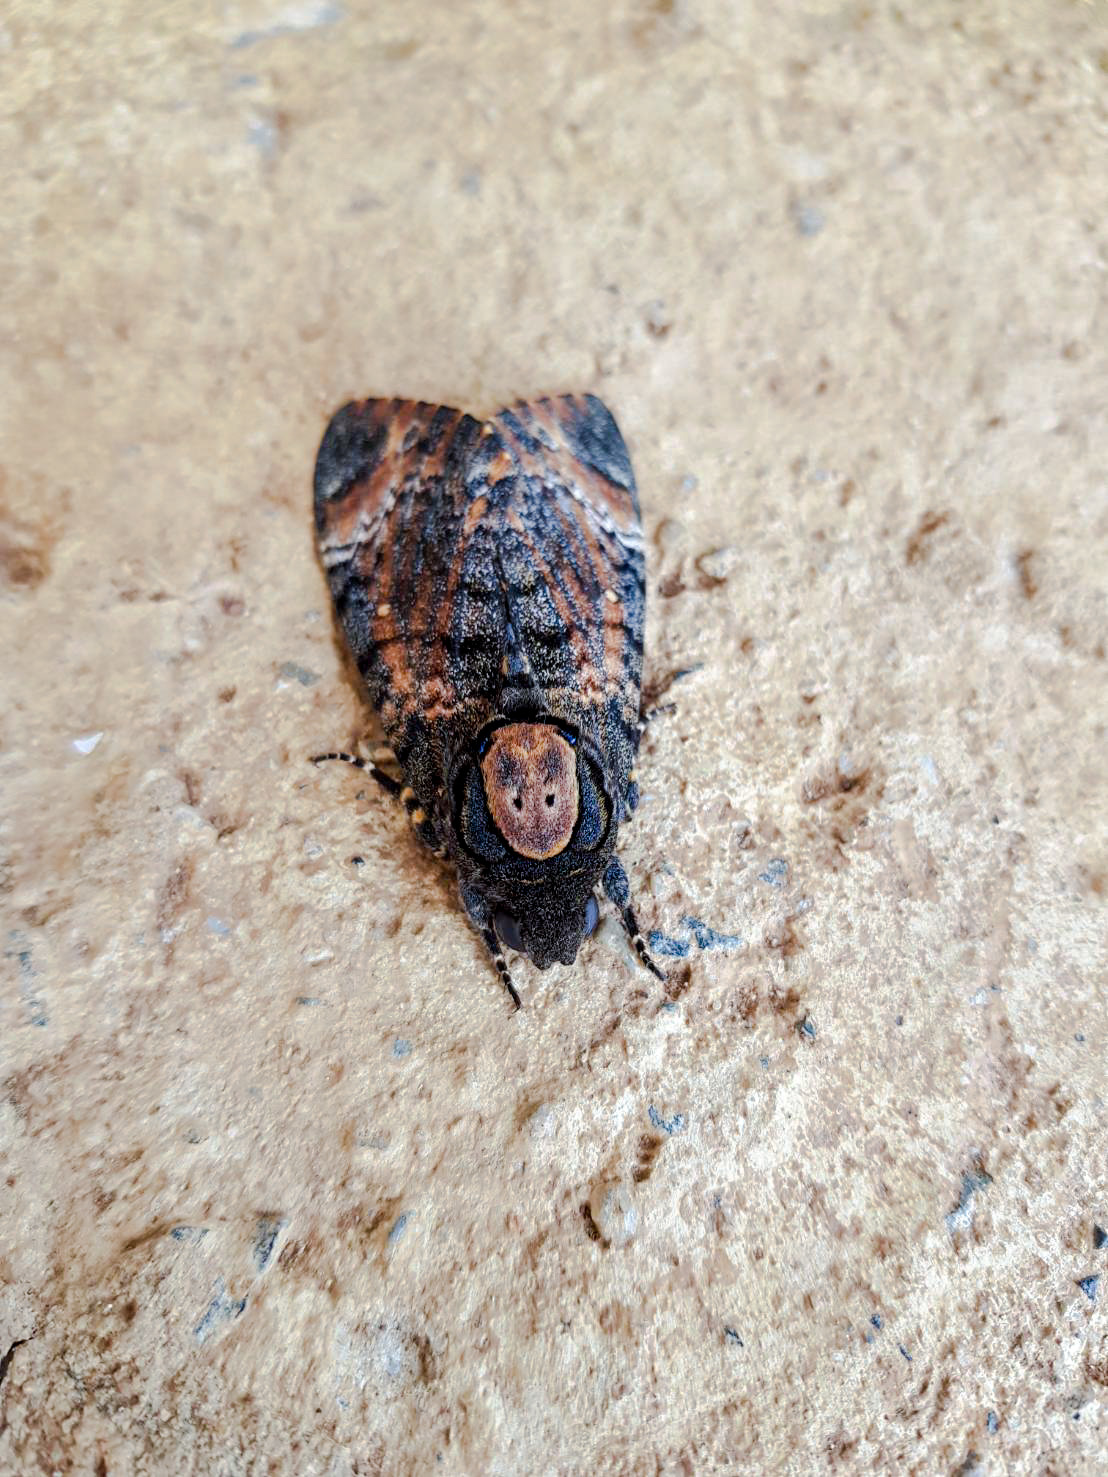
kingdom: Animalia
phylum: Arthropoda
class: Insecta
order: Lepidoptera
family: Sphingidae
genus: Acherontia
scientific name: Acherontia styx
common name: Death's-head hawk moth
